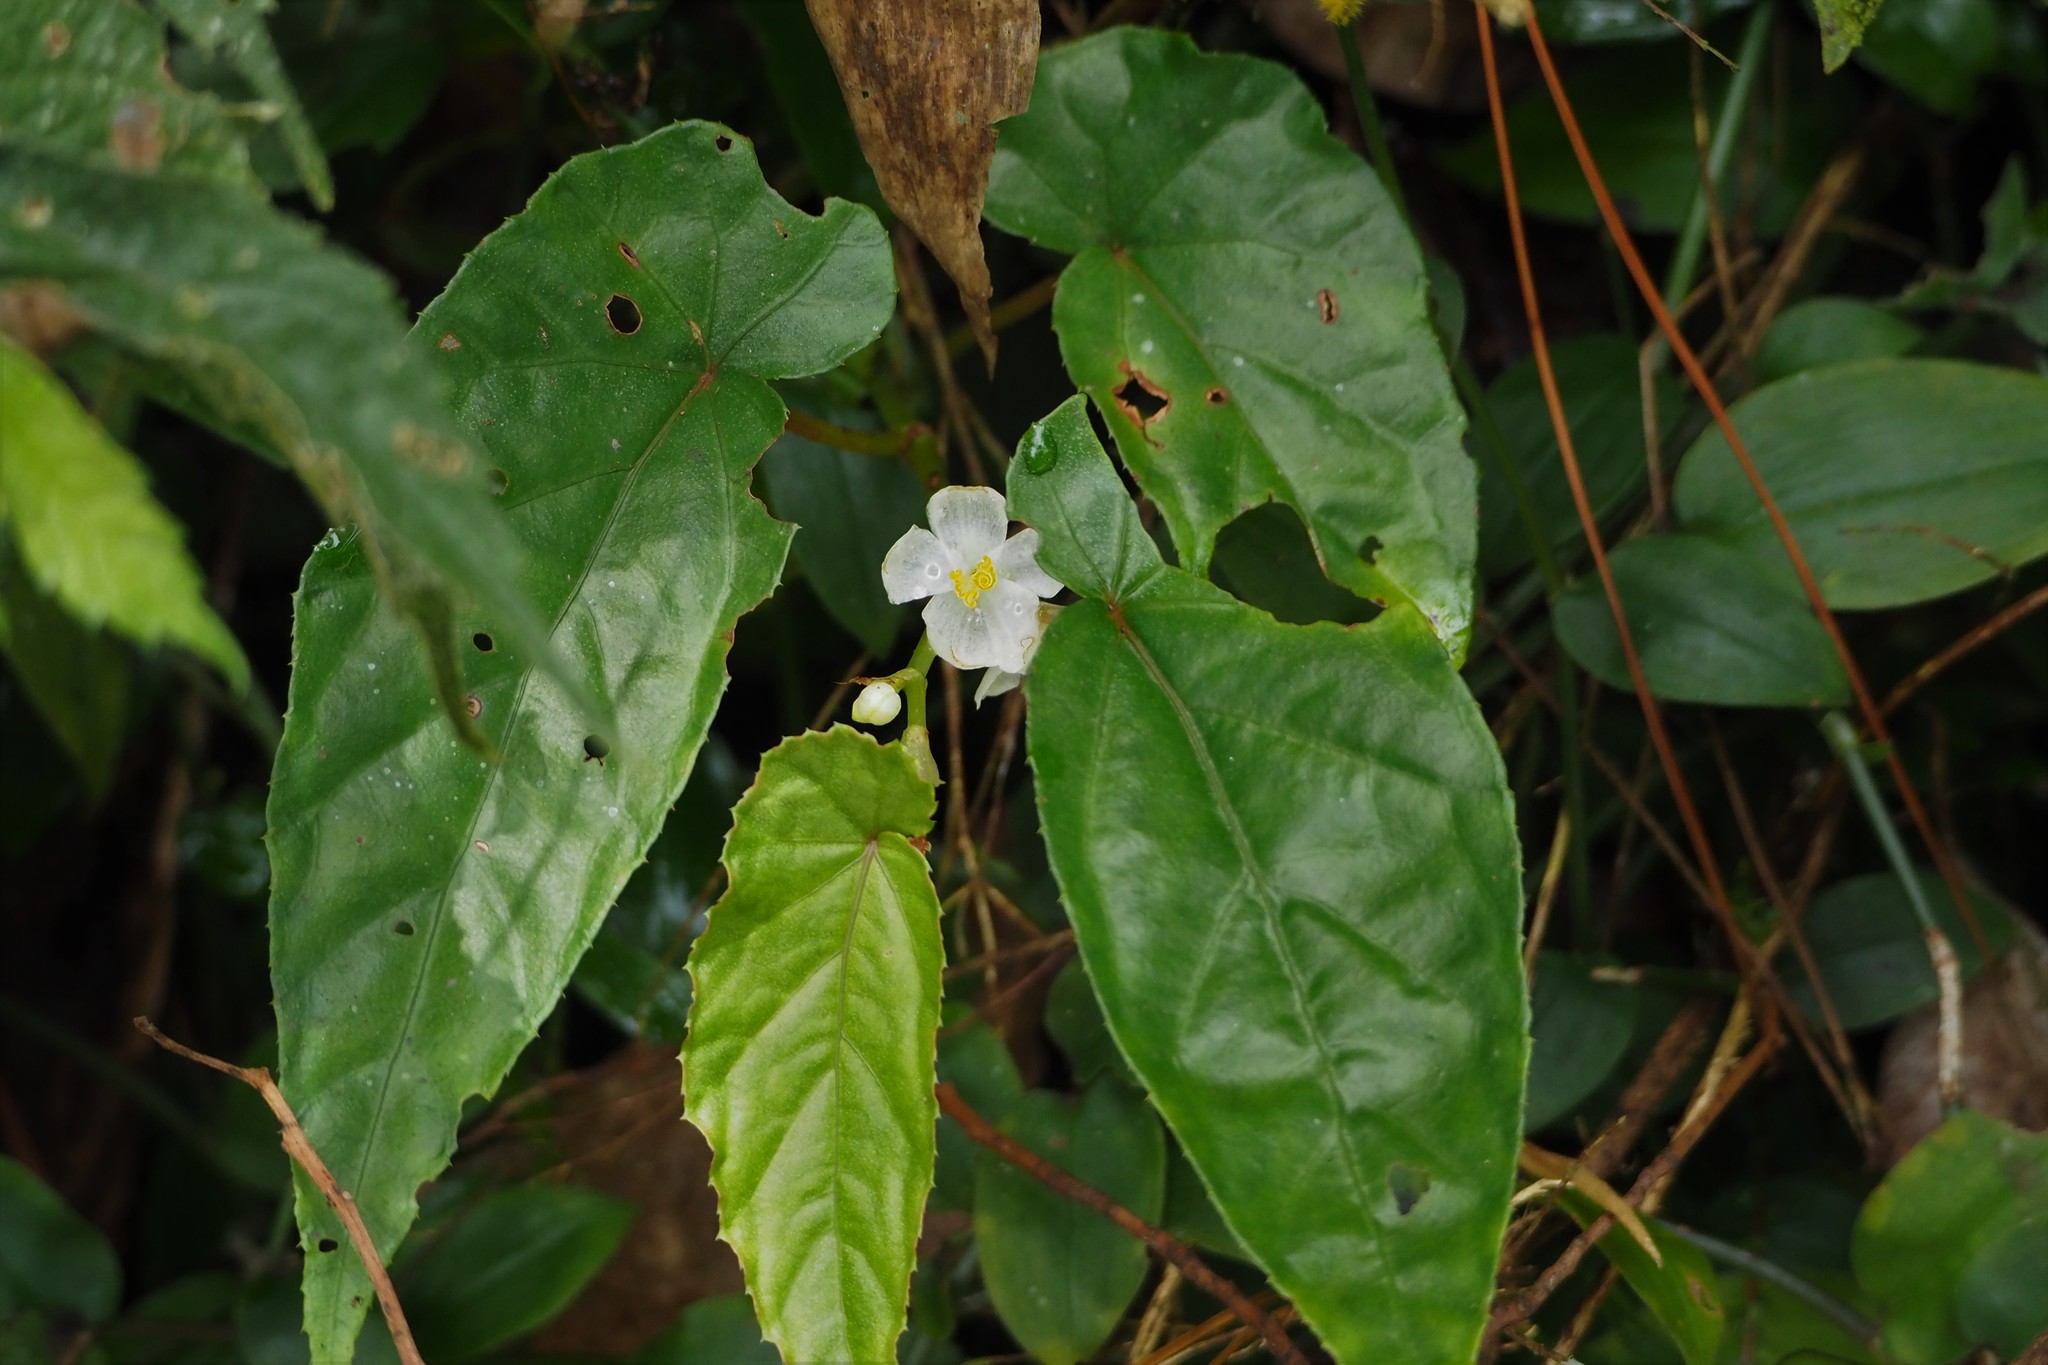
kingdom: Plantae
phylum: Tracheophyta
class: Magnoliopsida
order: Cucurbitales
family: Begoniaceae
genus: Begonia
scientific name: Begonia longifolia
